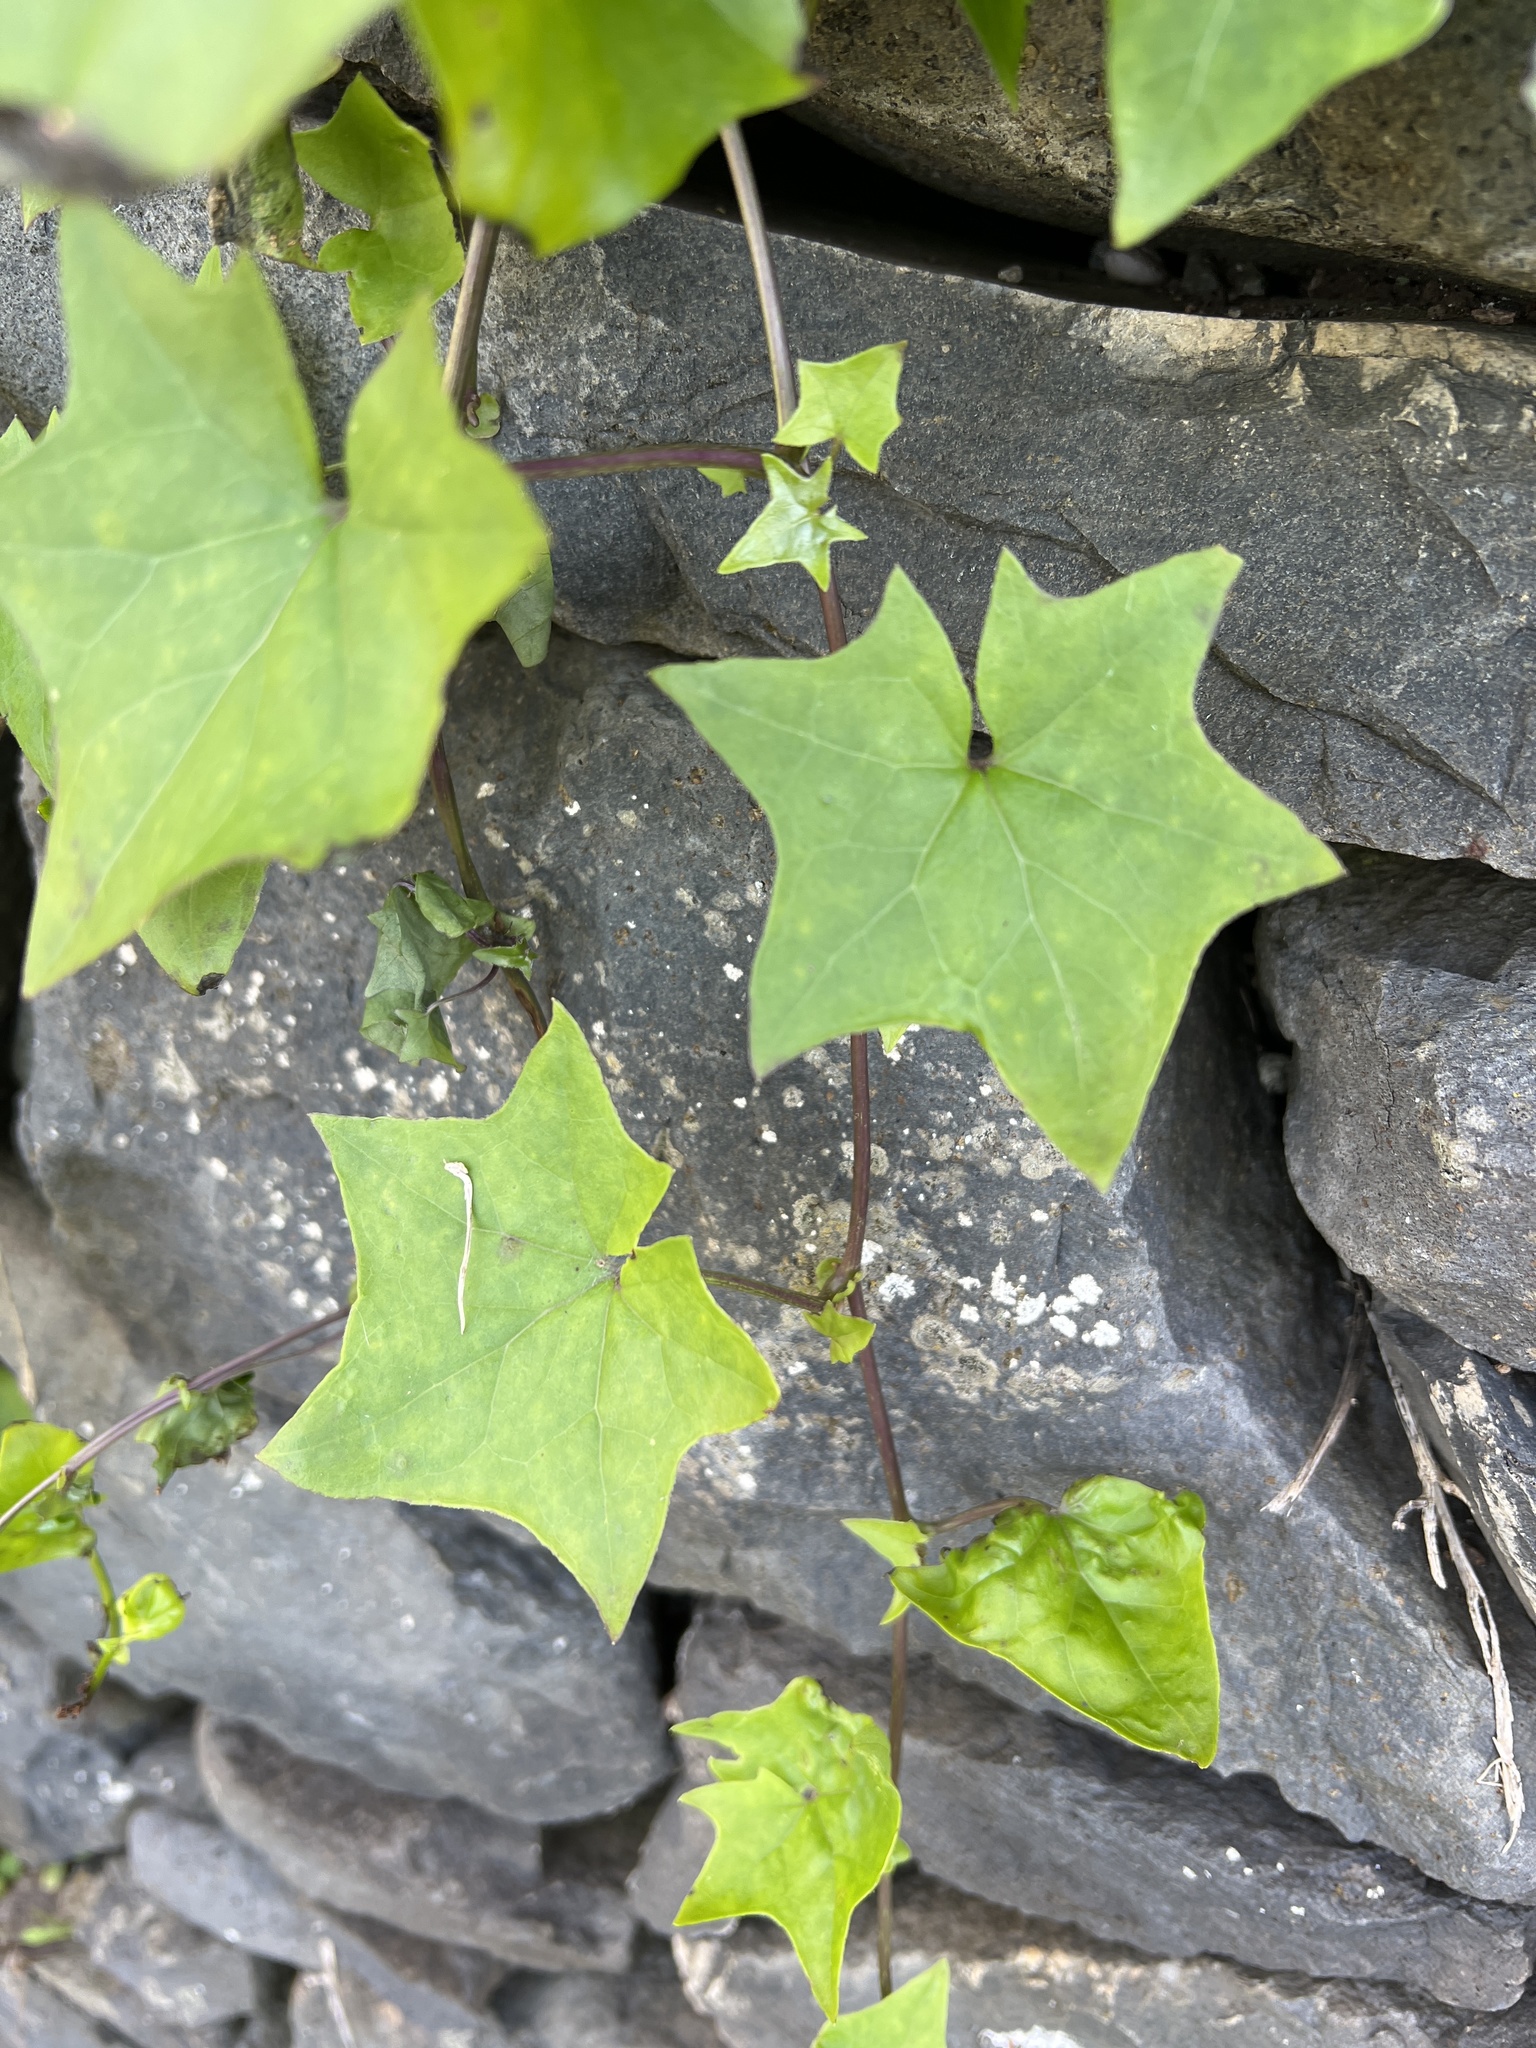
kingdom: Plantae
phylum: Tracheophyta
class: Magnoliopsida
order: Asterales
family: Asteraceae
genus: Delairea
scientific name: Delairea odorata
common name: Cape-ivy
